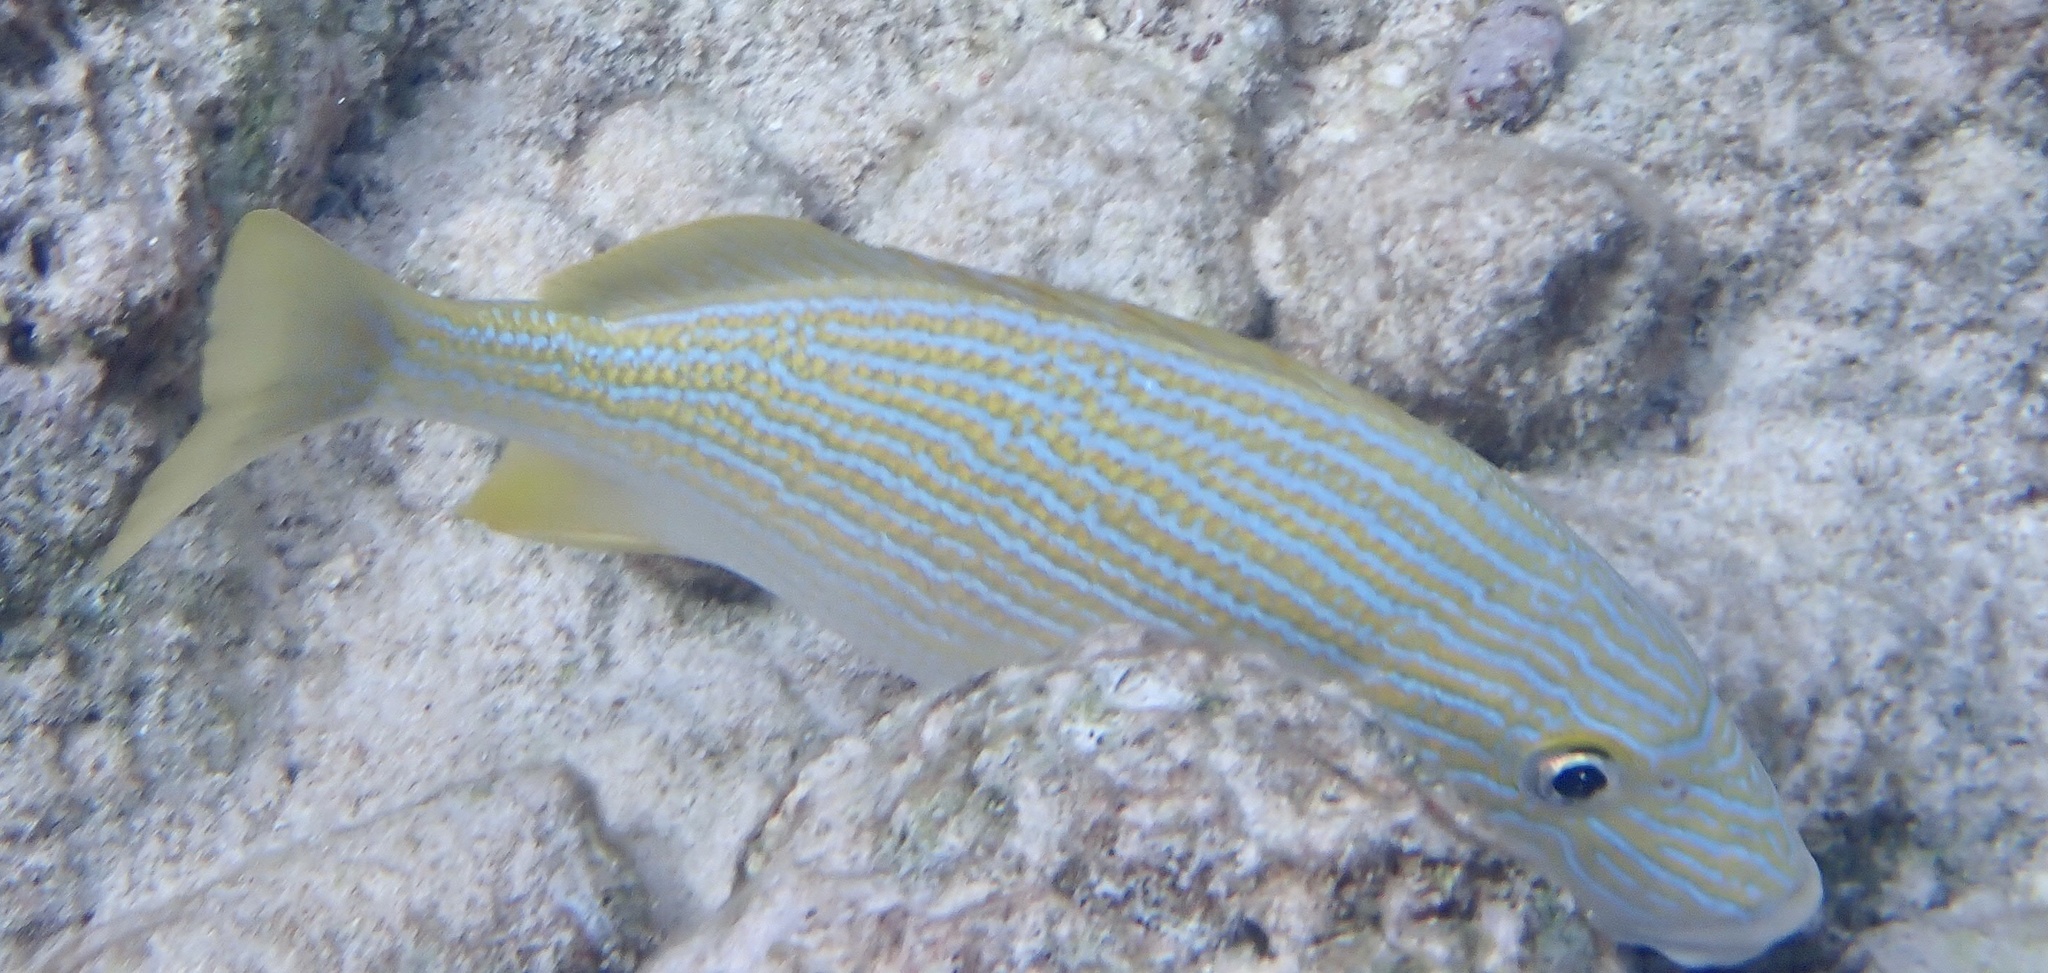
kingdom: Animalia
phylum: Chordata
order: Perciformes
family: Haemulidae
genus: Haemulon
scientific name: Haemulon sciurus
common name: Bluestriped grunt
